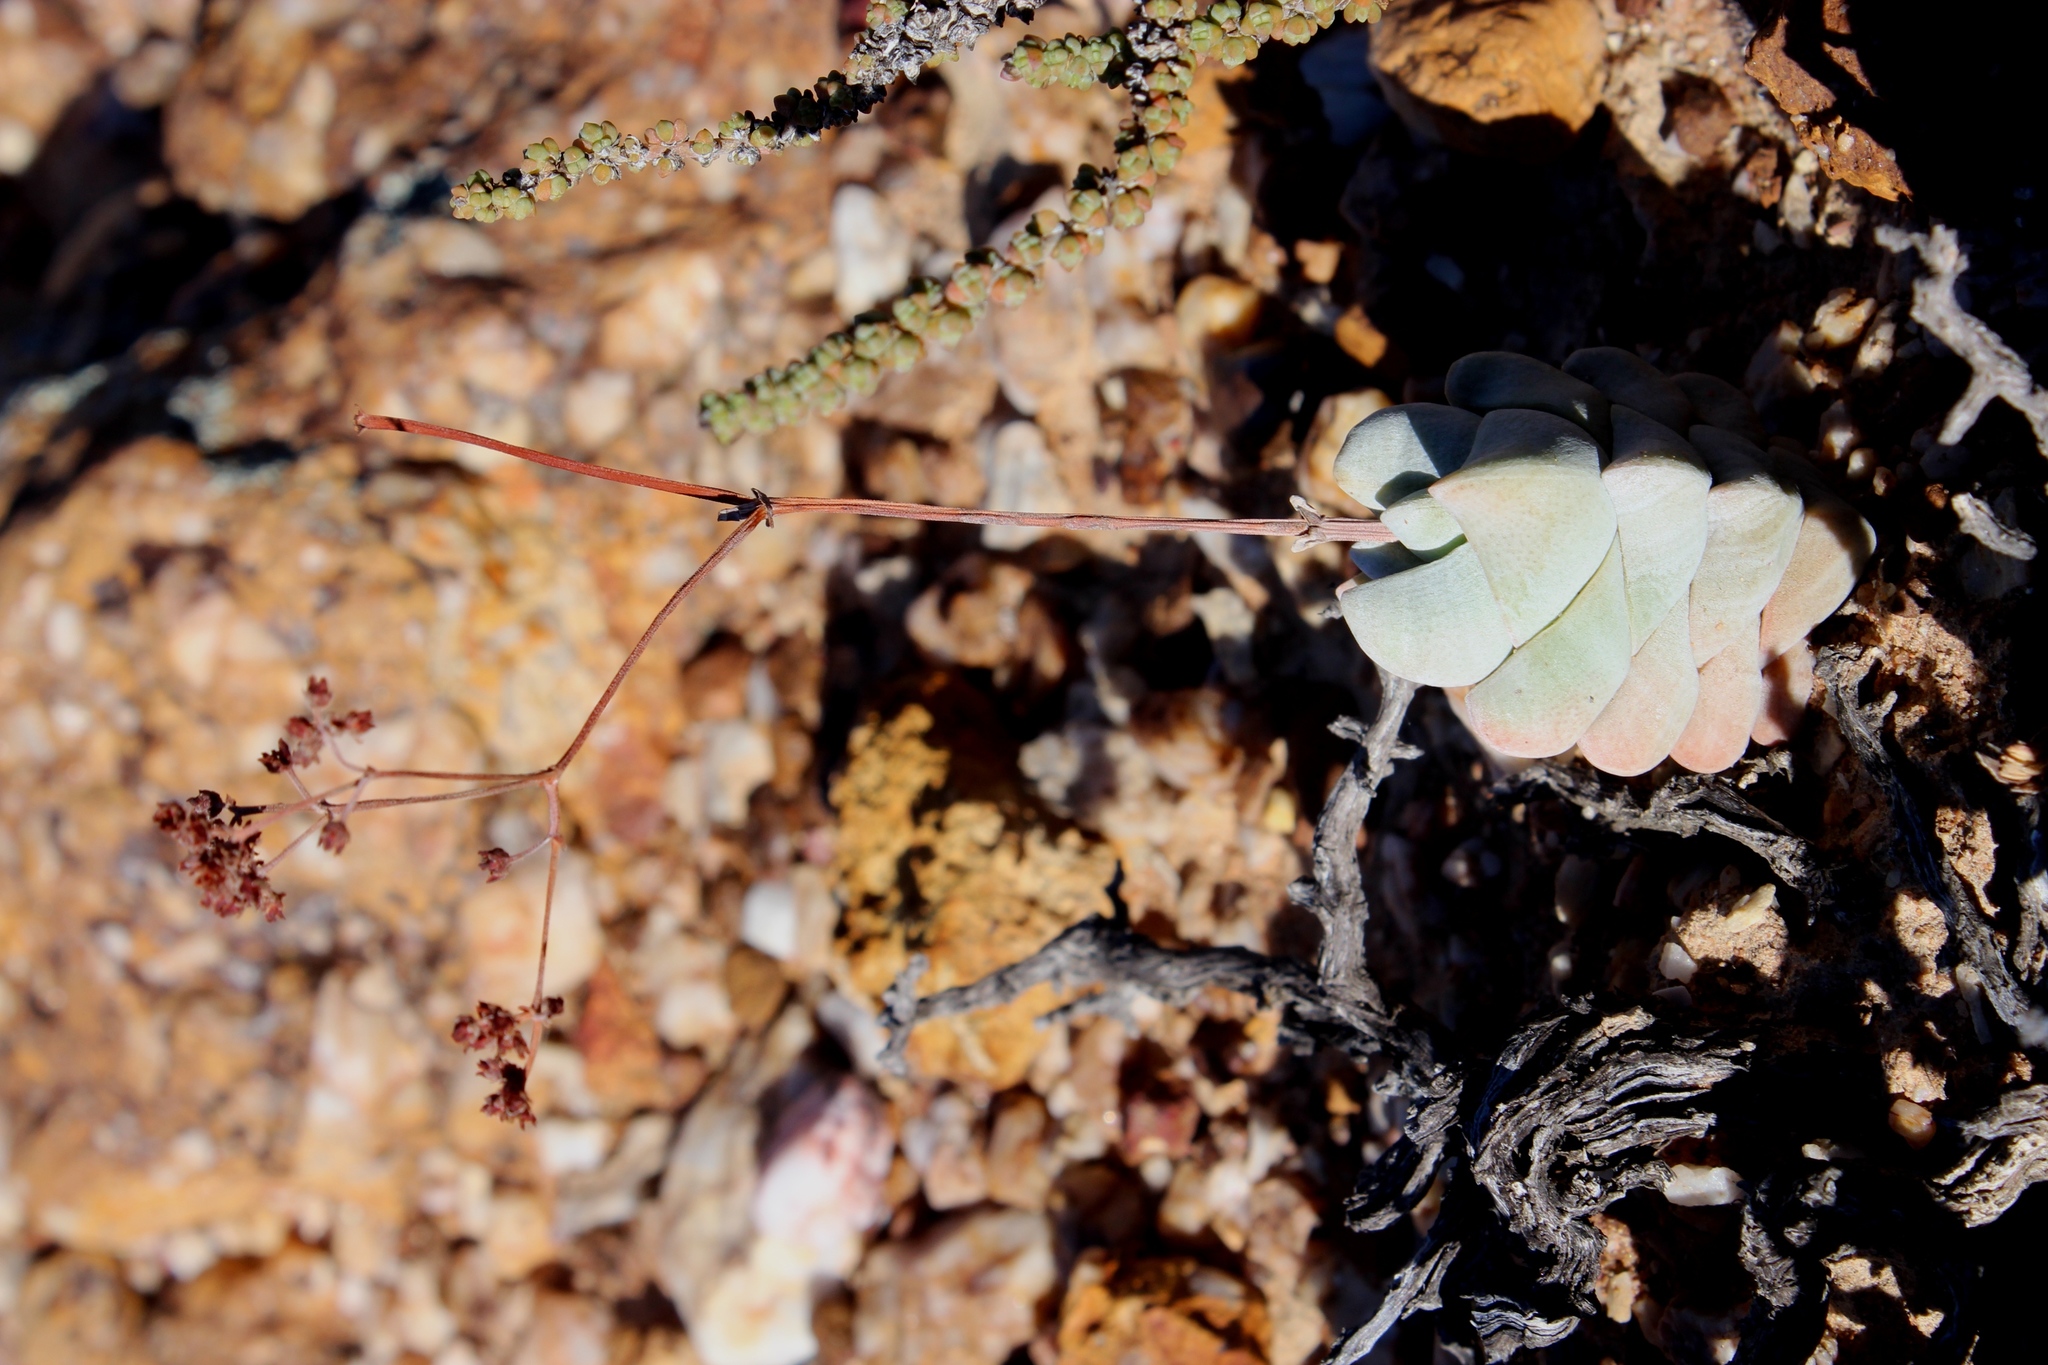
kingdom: Plantae
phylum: Tracheophyta
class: Magnoliopsida
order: Saxifragales
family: Crassulaceae
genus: Crassula
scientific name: Crassula deceptor
